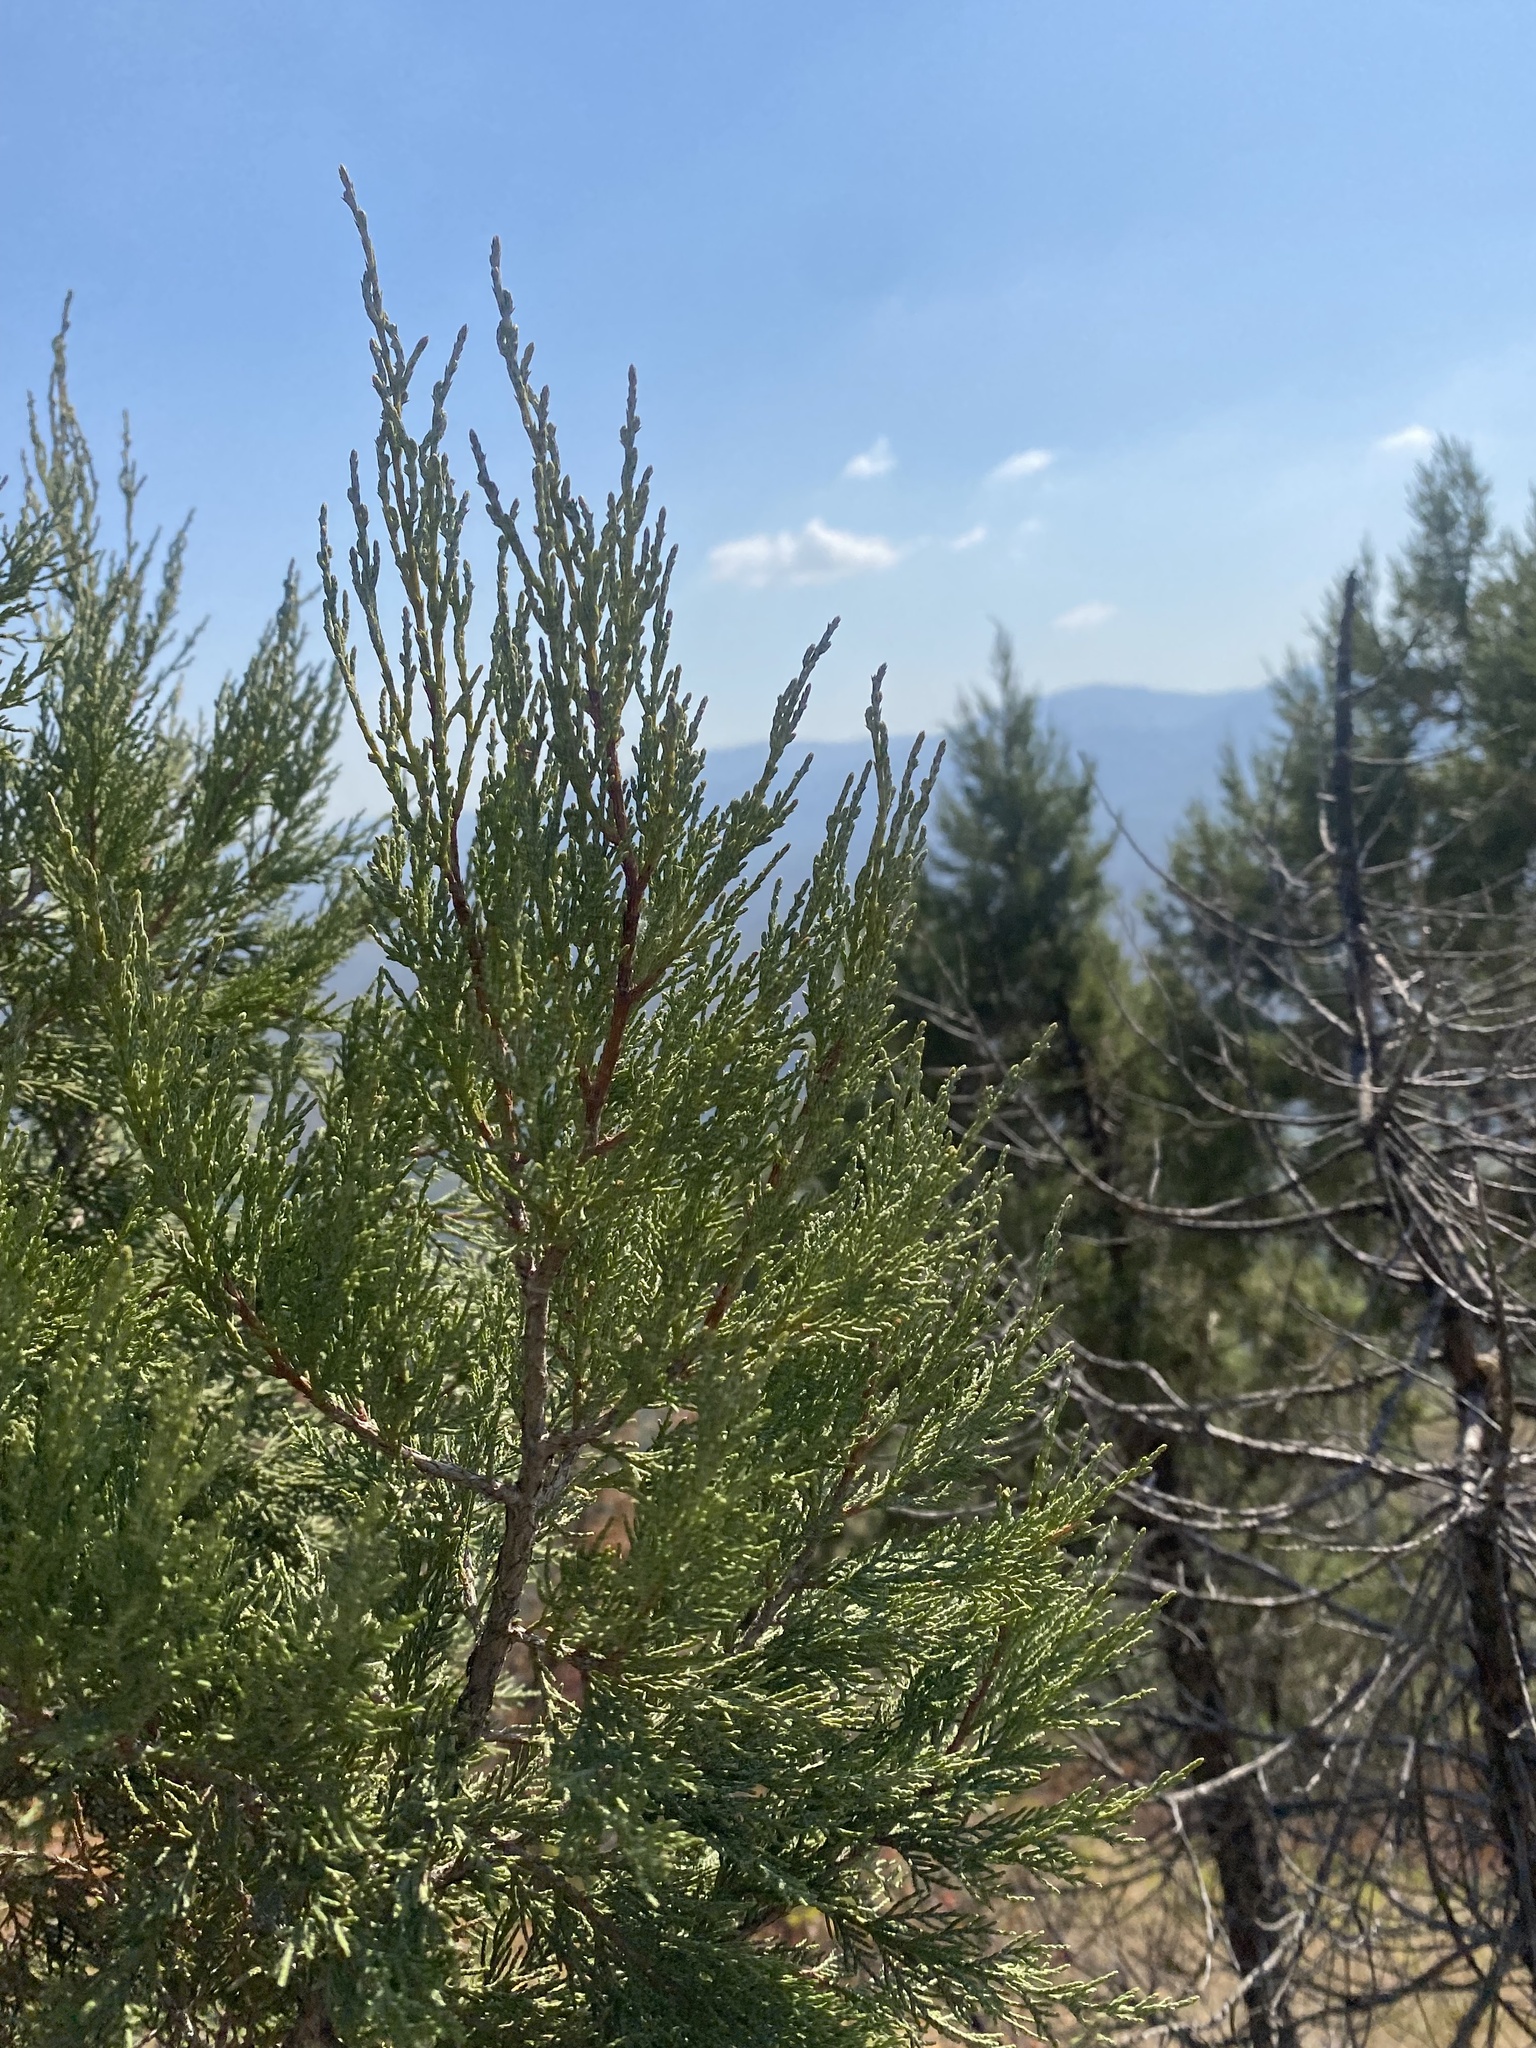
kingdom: Plantae
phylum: Tracheophyta
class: Pinopsida
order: Pinales
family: Cupressaceae
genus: Juniperus
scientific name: Juniperus excelsa
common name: Crimean juniper
